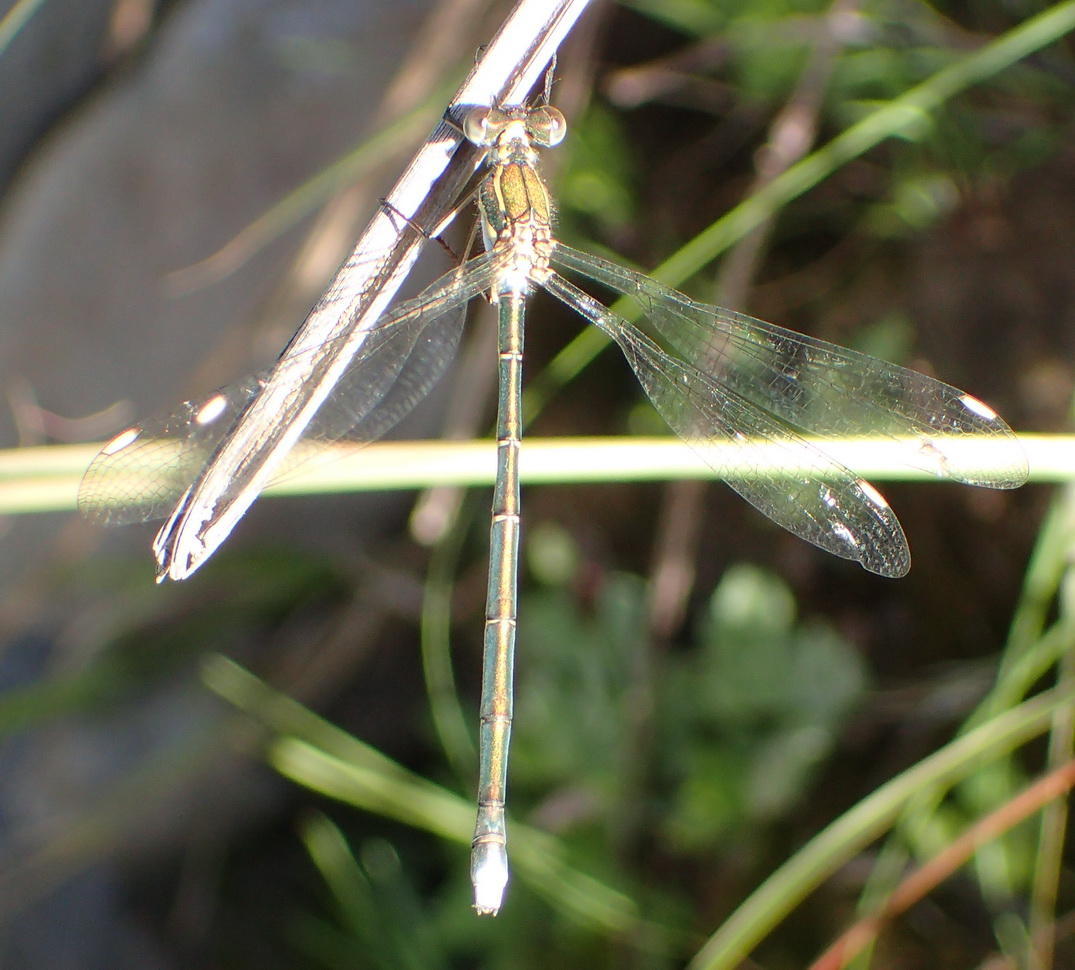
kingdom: Animalia
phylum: Arthropoda
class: Insecta
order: Odonata
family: Synlestidae
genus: Chlorolestes
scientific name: Chlorolestes fasciatus
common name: Mountain malachite
